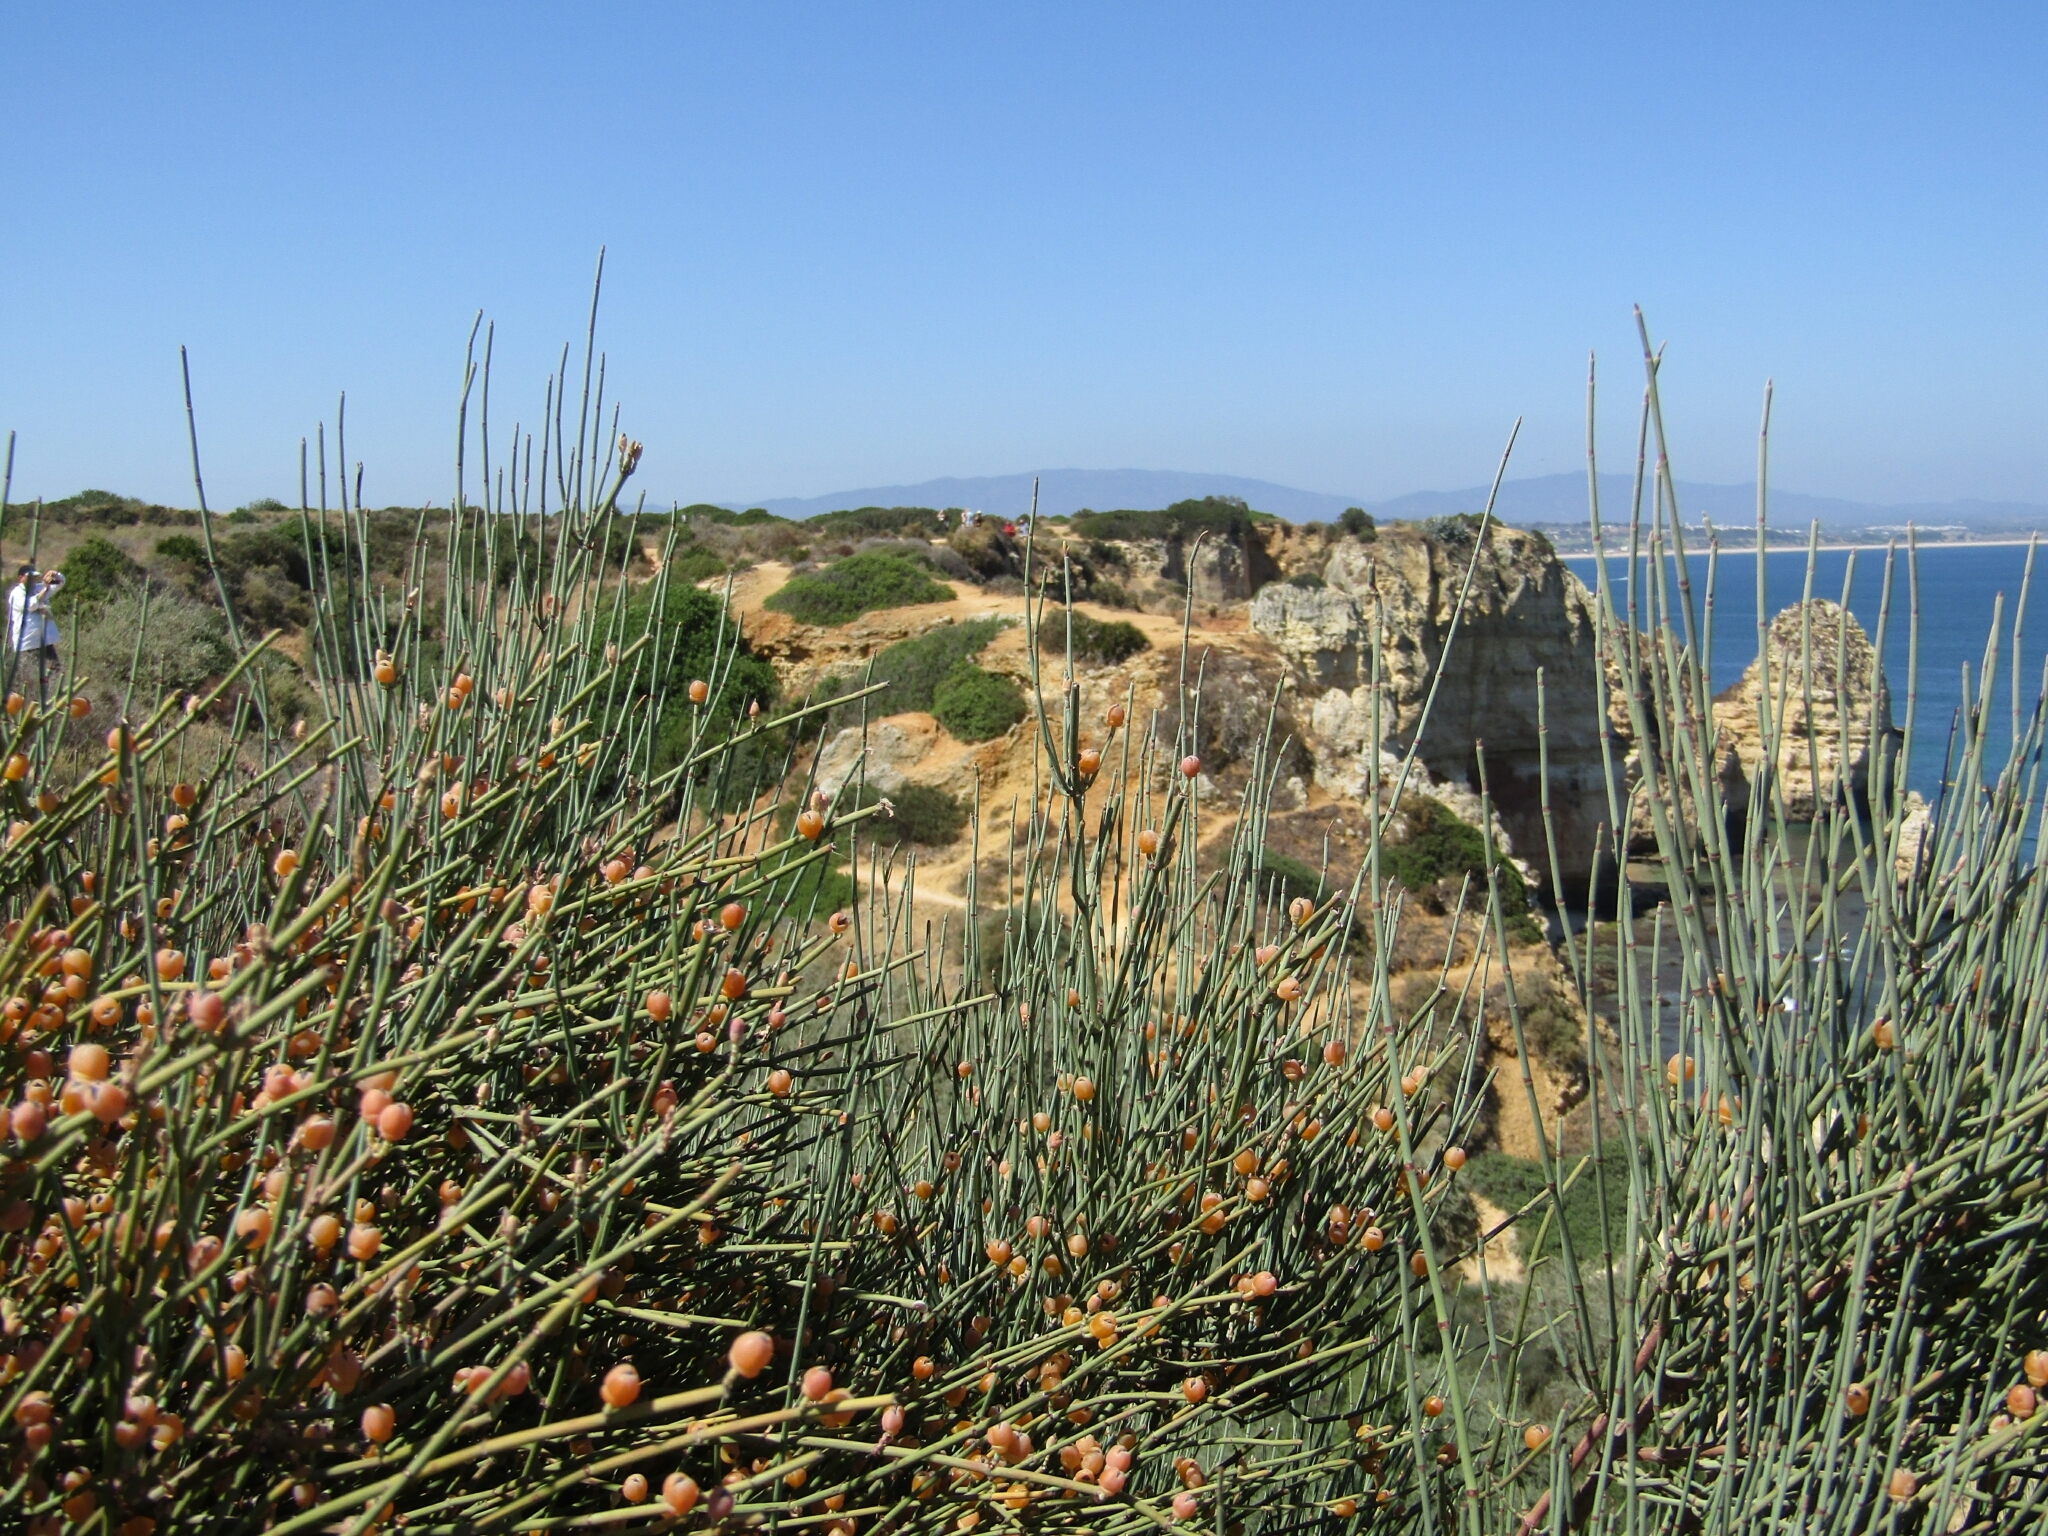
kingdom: Plantae
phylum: Tracheophyta
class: Gnetopsida
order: Ephedrales
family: Ephedraceae
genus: Ephedra
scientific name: Ephedra fragilis
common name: Joint pine
